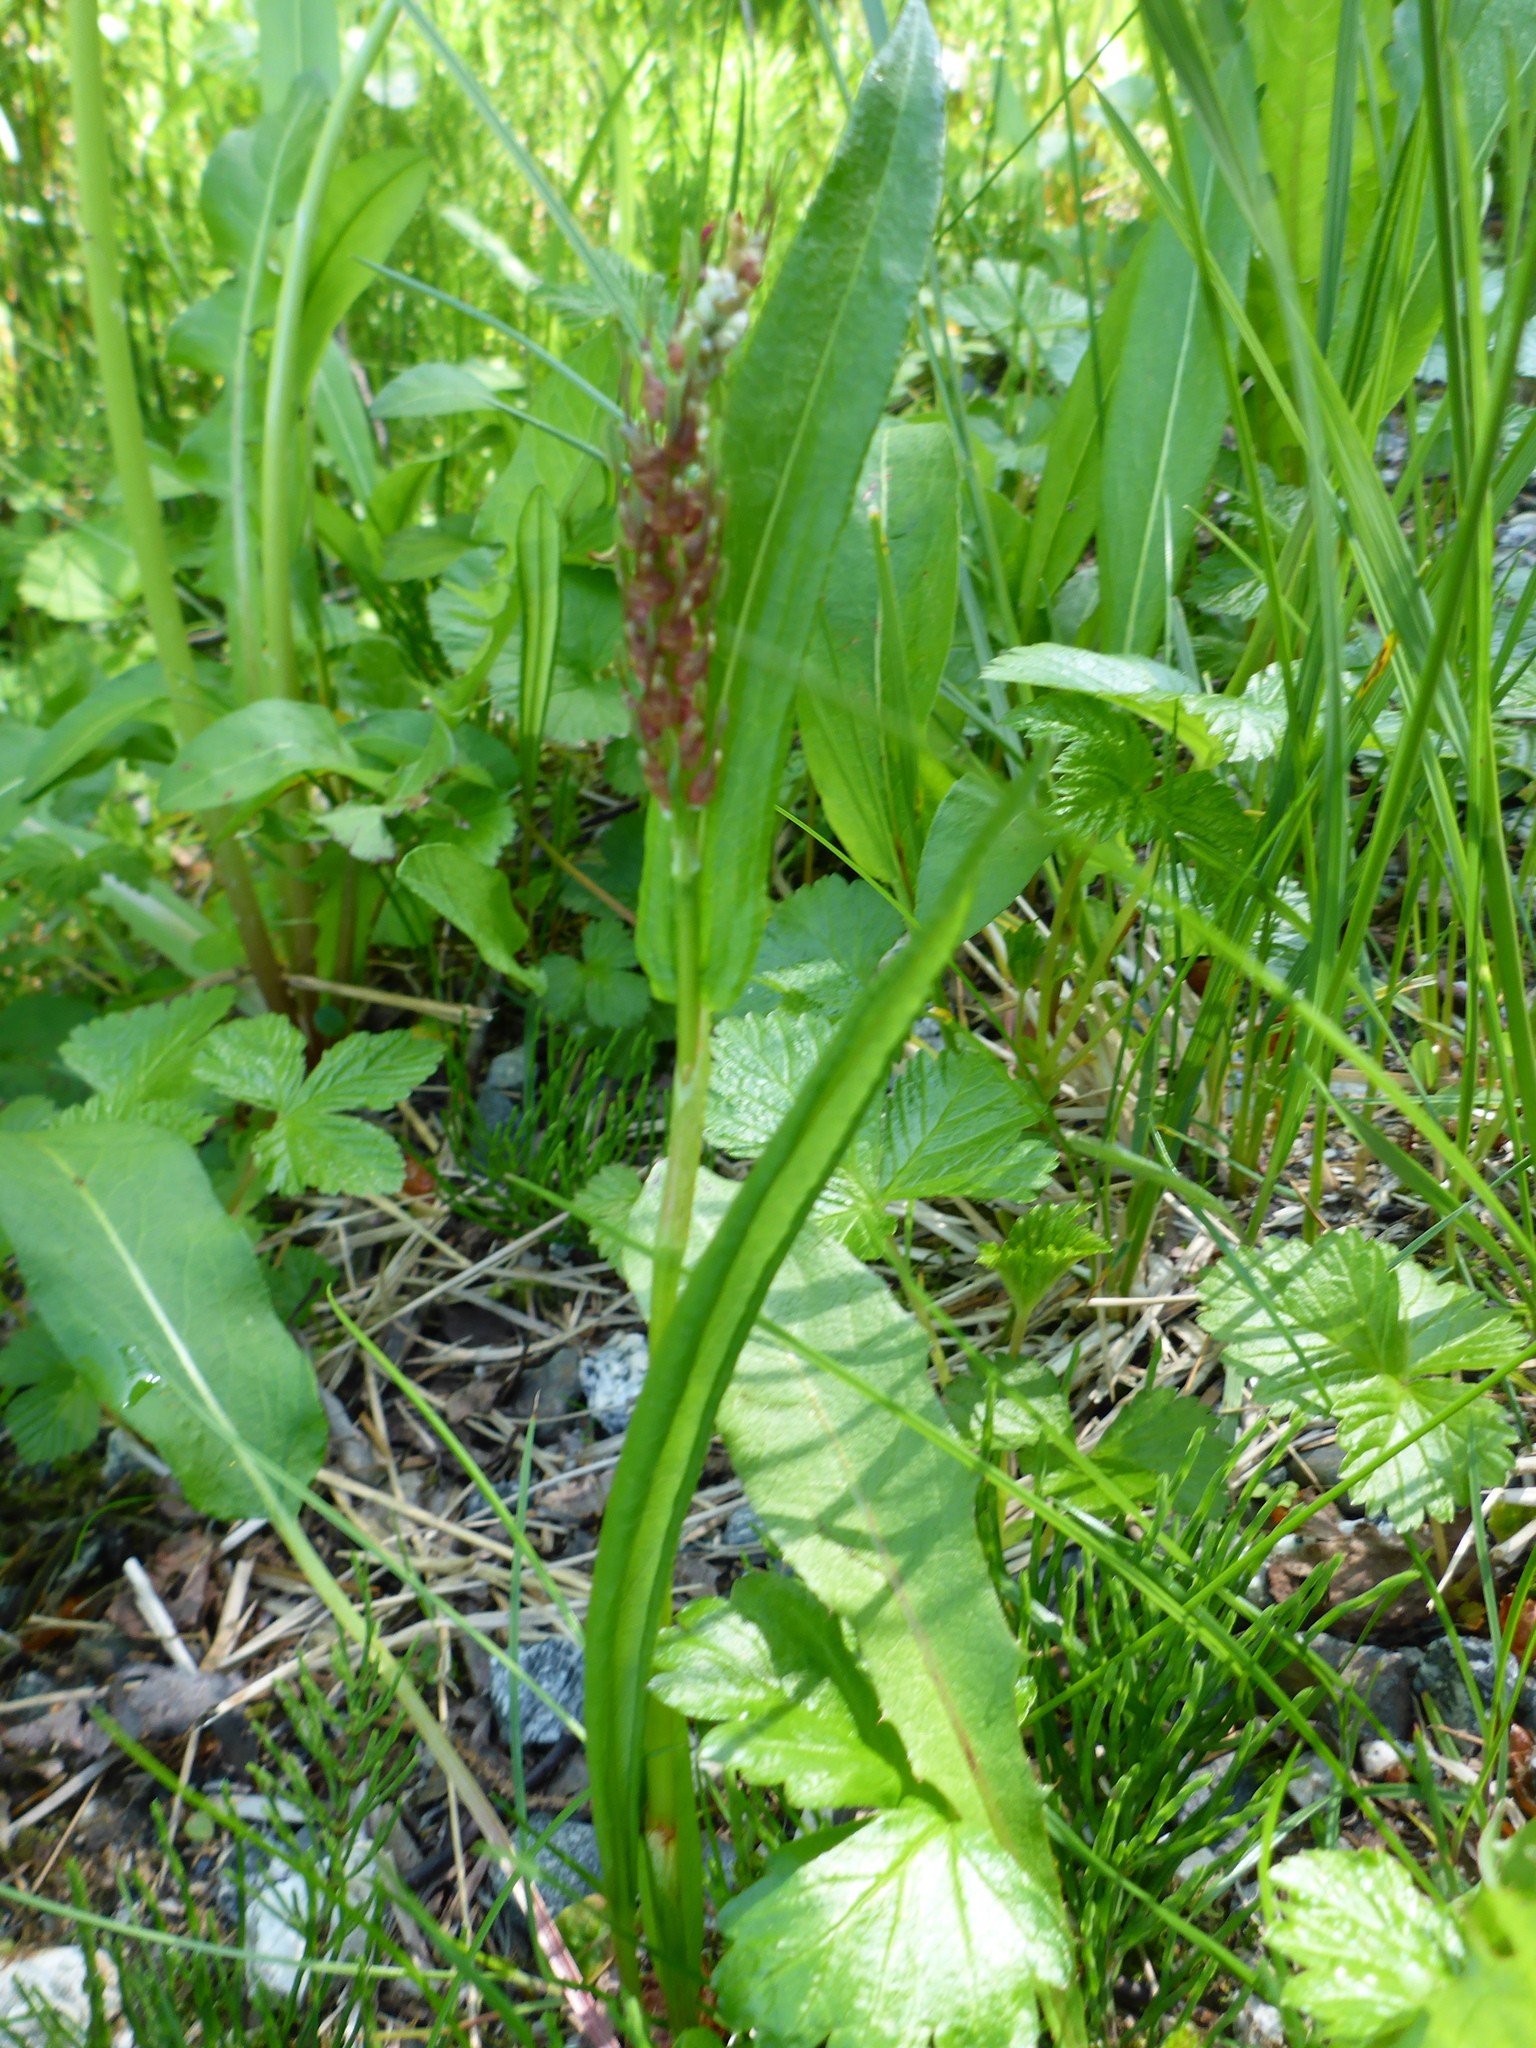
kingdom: Plantae
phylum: Tracheophyta
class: Magnoliopsida
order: Caryophyllales
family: Polygonaceae
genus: Bistorta
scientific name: Bistorta vivipara
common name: Alpine bistort
